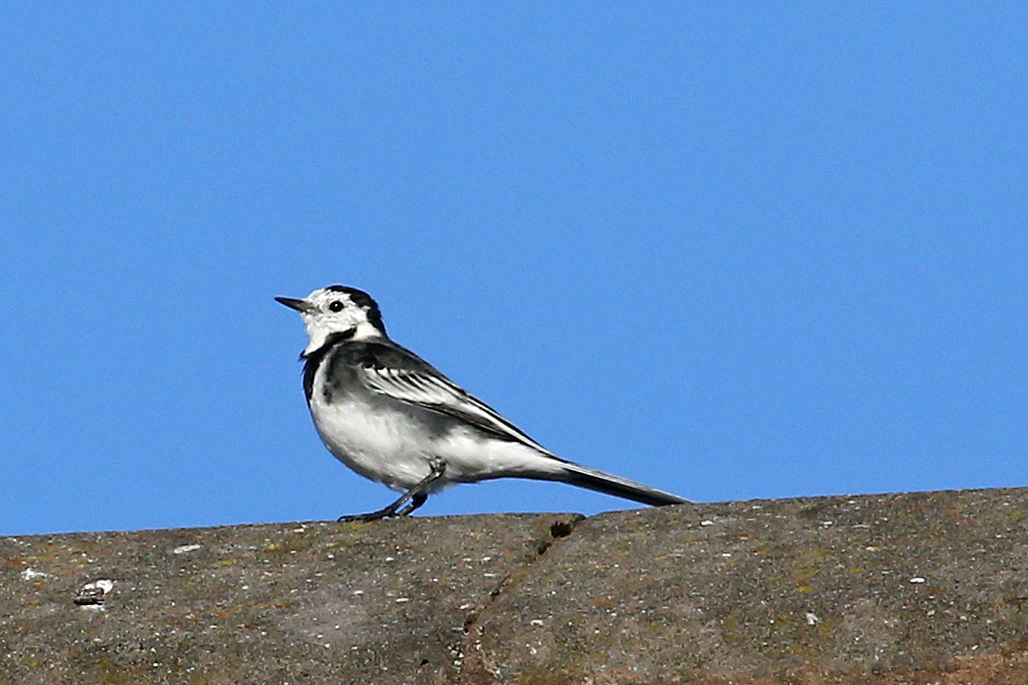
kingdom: Animalia
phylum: Chordata
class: Aves
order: Passeriformes
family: Motacillidae
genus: Motacilla
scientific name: Motacilla alba
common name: White wagtail
